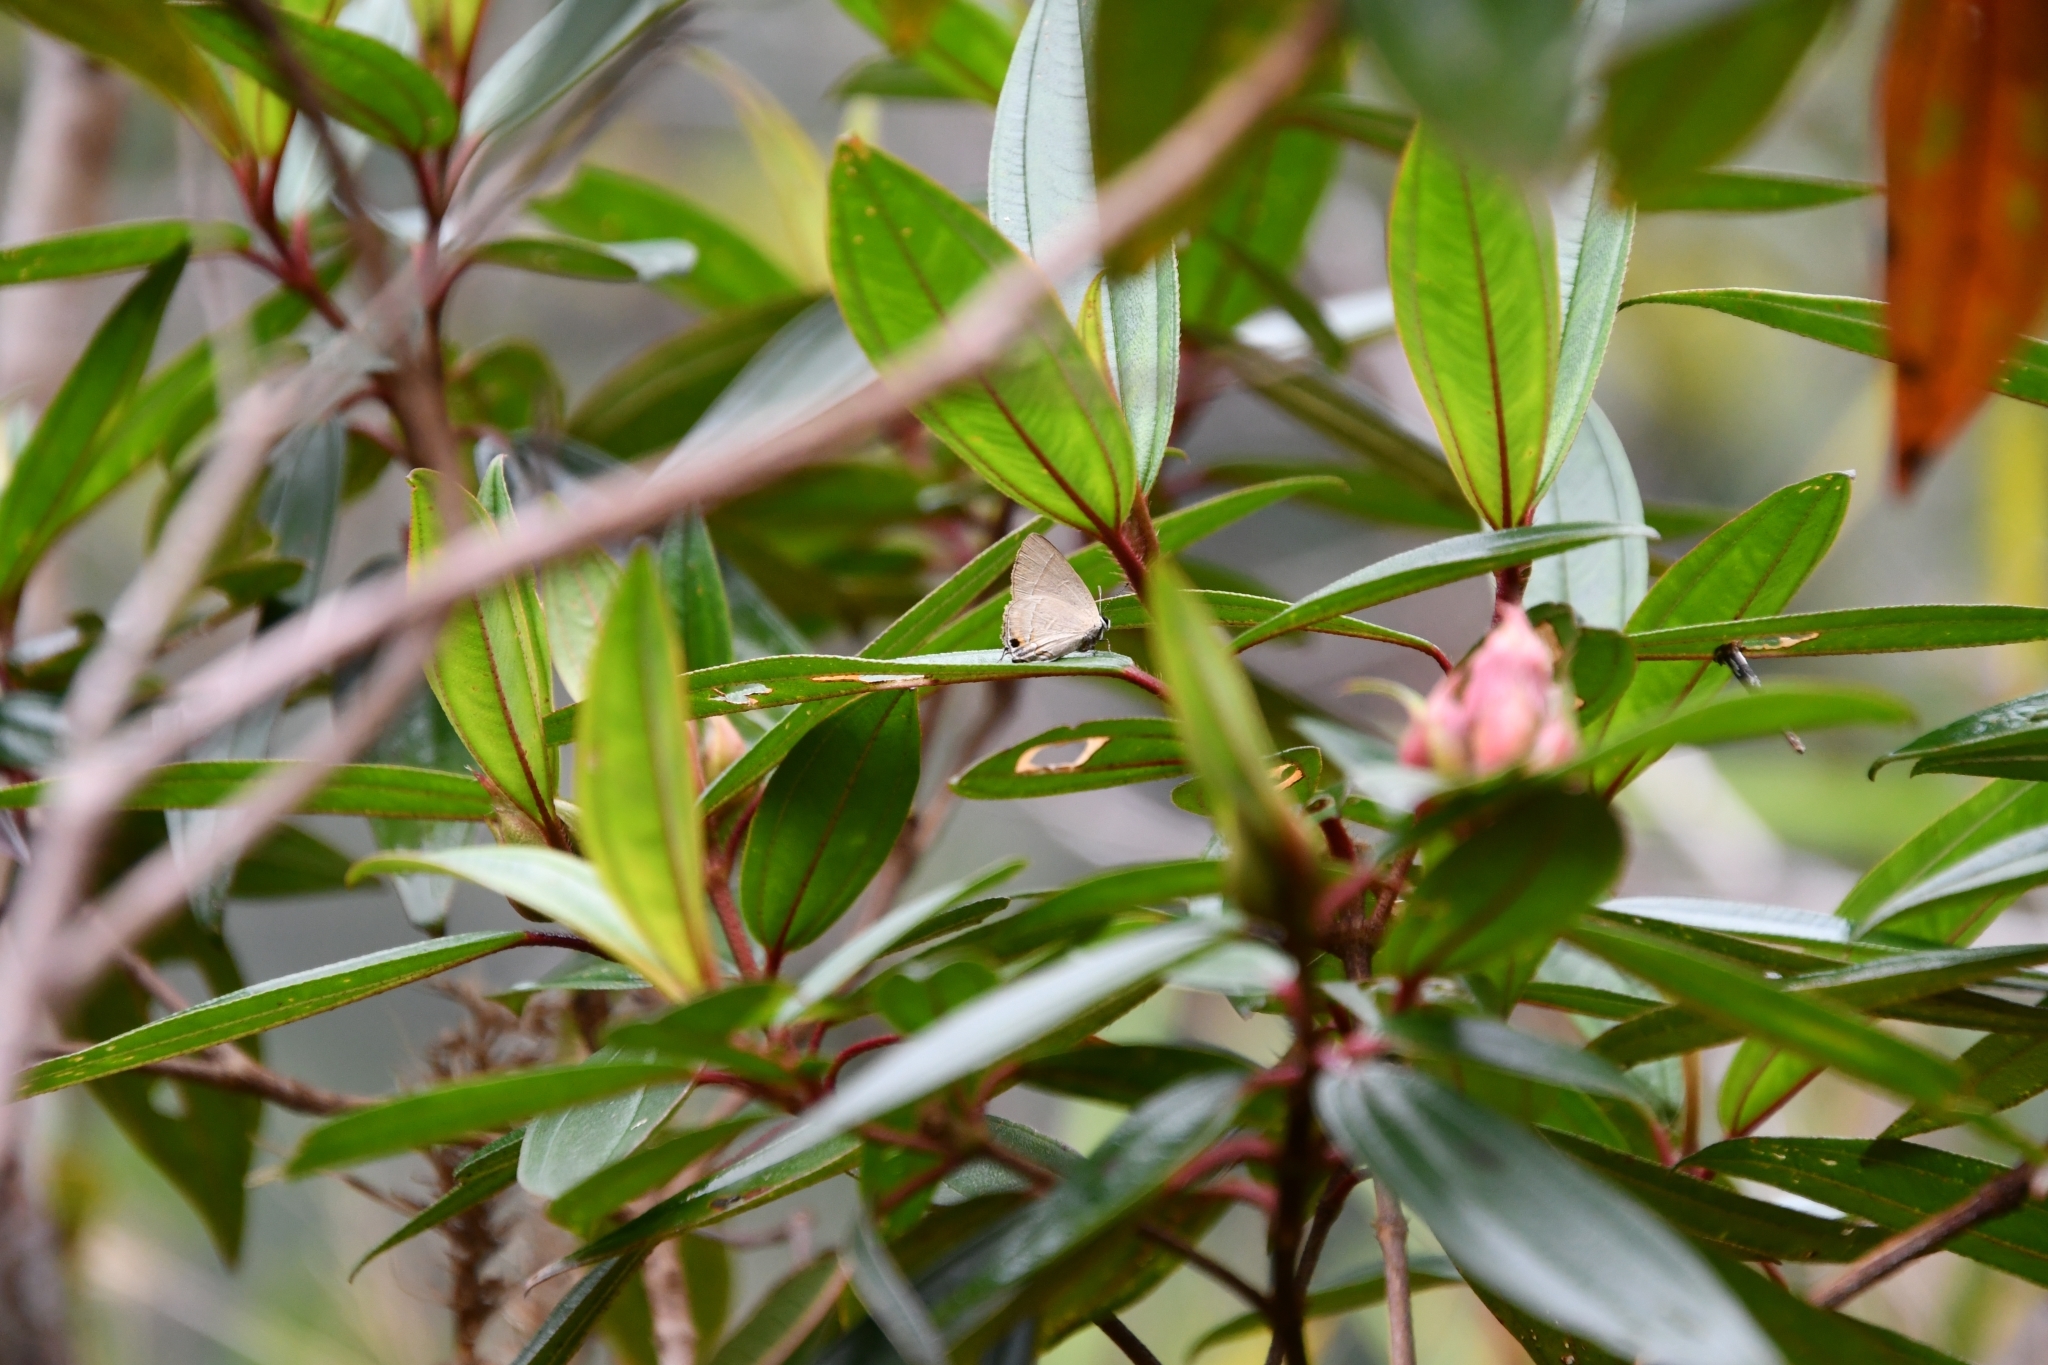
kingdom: Animalia
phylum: Arthropoda
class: Insecta
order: Lepidoptera
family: Lycaenidae
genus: Rapala
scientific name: Rapala dieneces
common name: Scarlet flash
